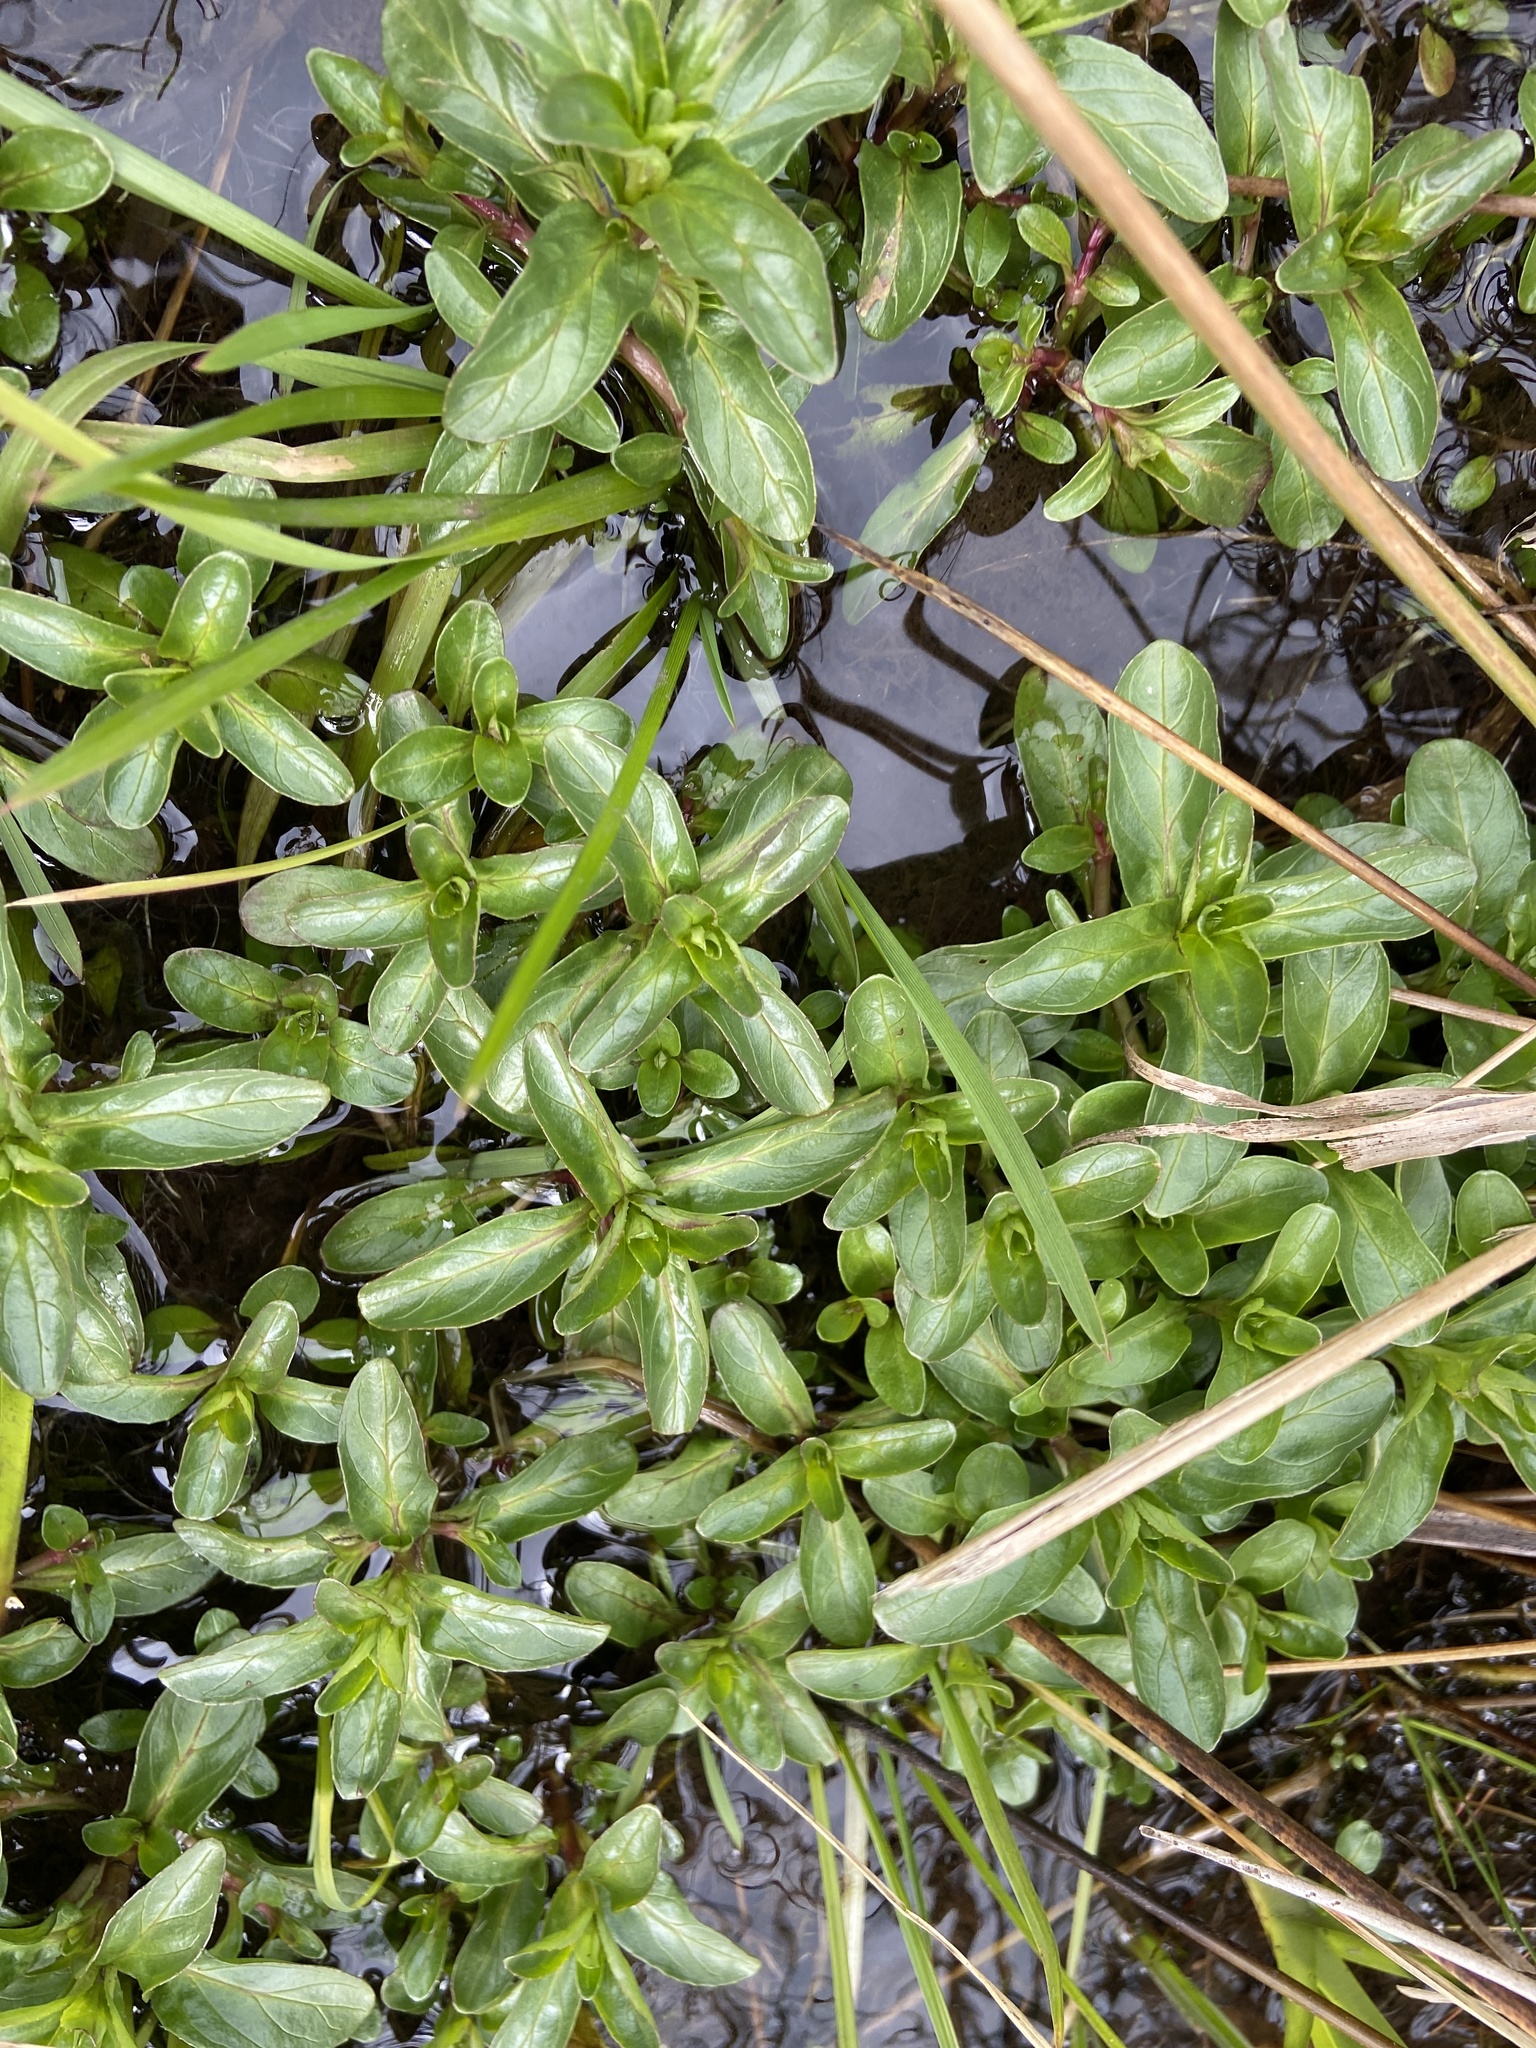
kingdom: Plantae
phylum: Tracheophyta
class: Magnoliopsida
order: Lamiales
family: Plantaginaceae
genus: Veronica
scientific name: Veronica beccabunga
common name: Brooklime
